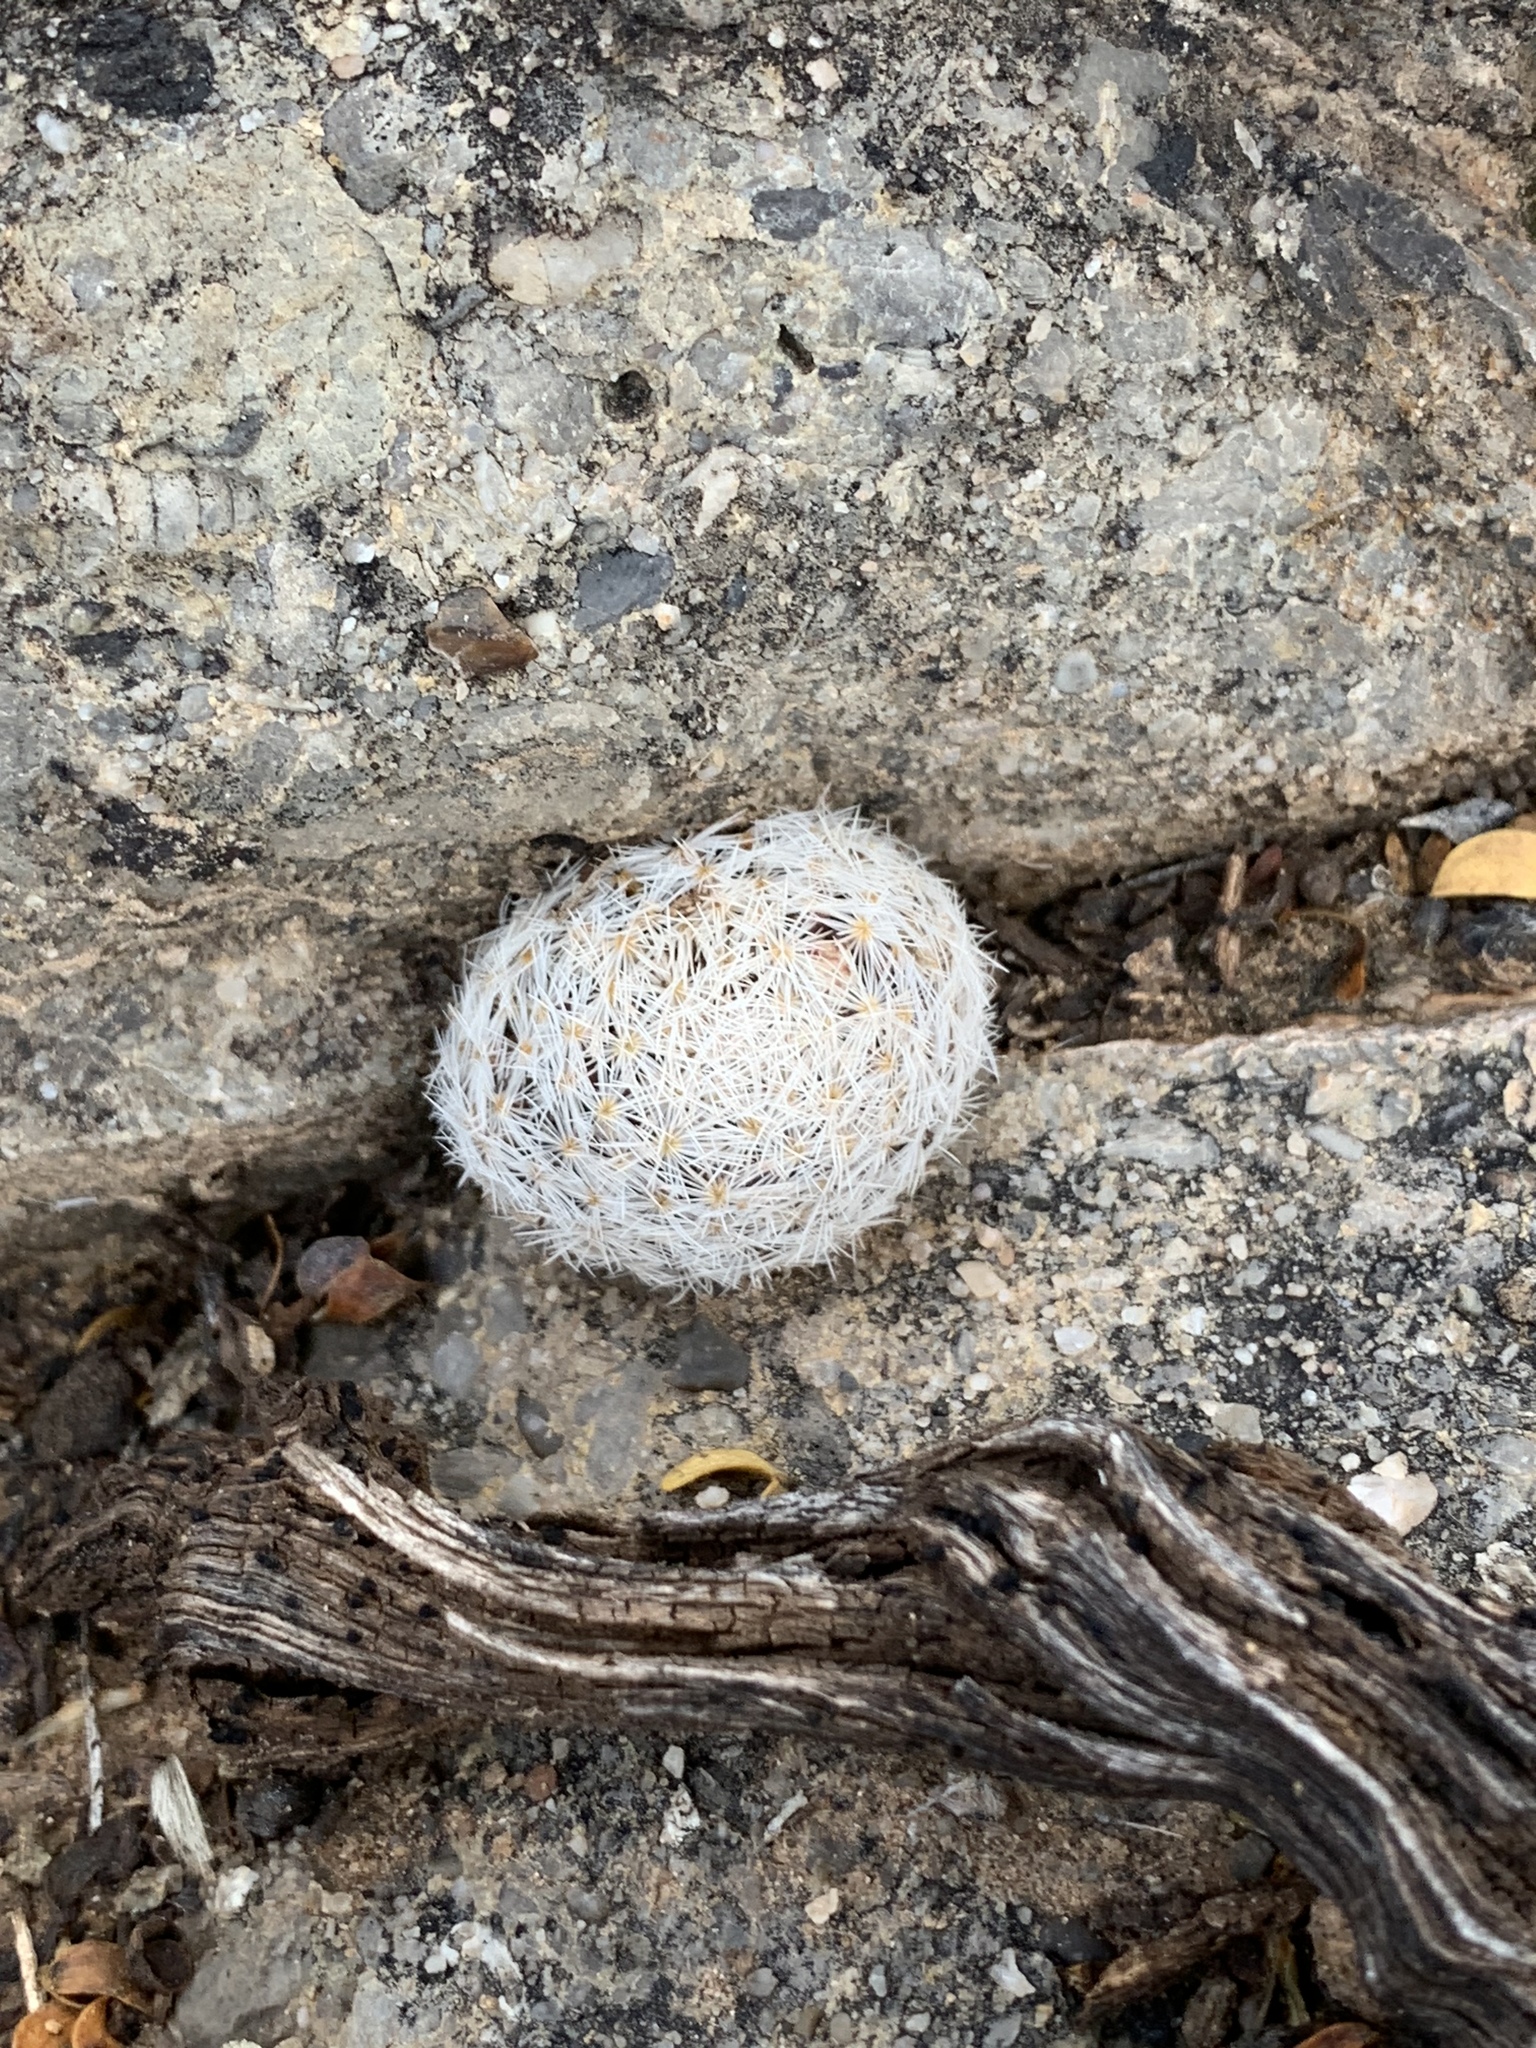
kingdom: Plantae
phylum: Tracheophyta
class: Magnoliopsida
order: Caryophyllales
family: Cactaceae
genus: Mammillaria
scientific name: Mammillaria lasiacantha
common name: Lace-spine nipple cactus
